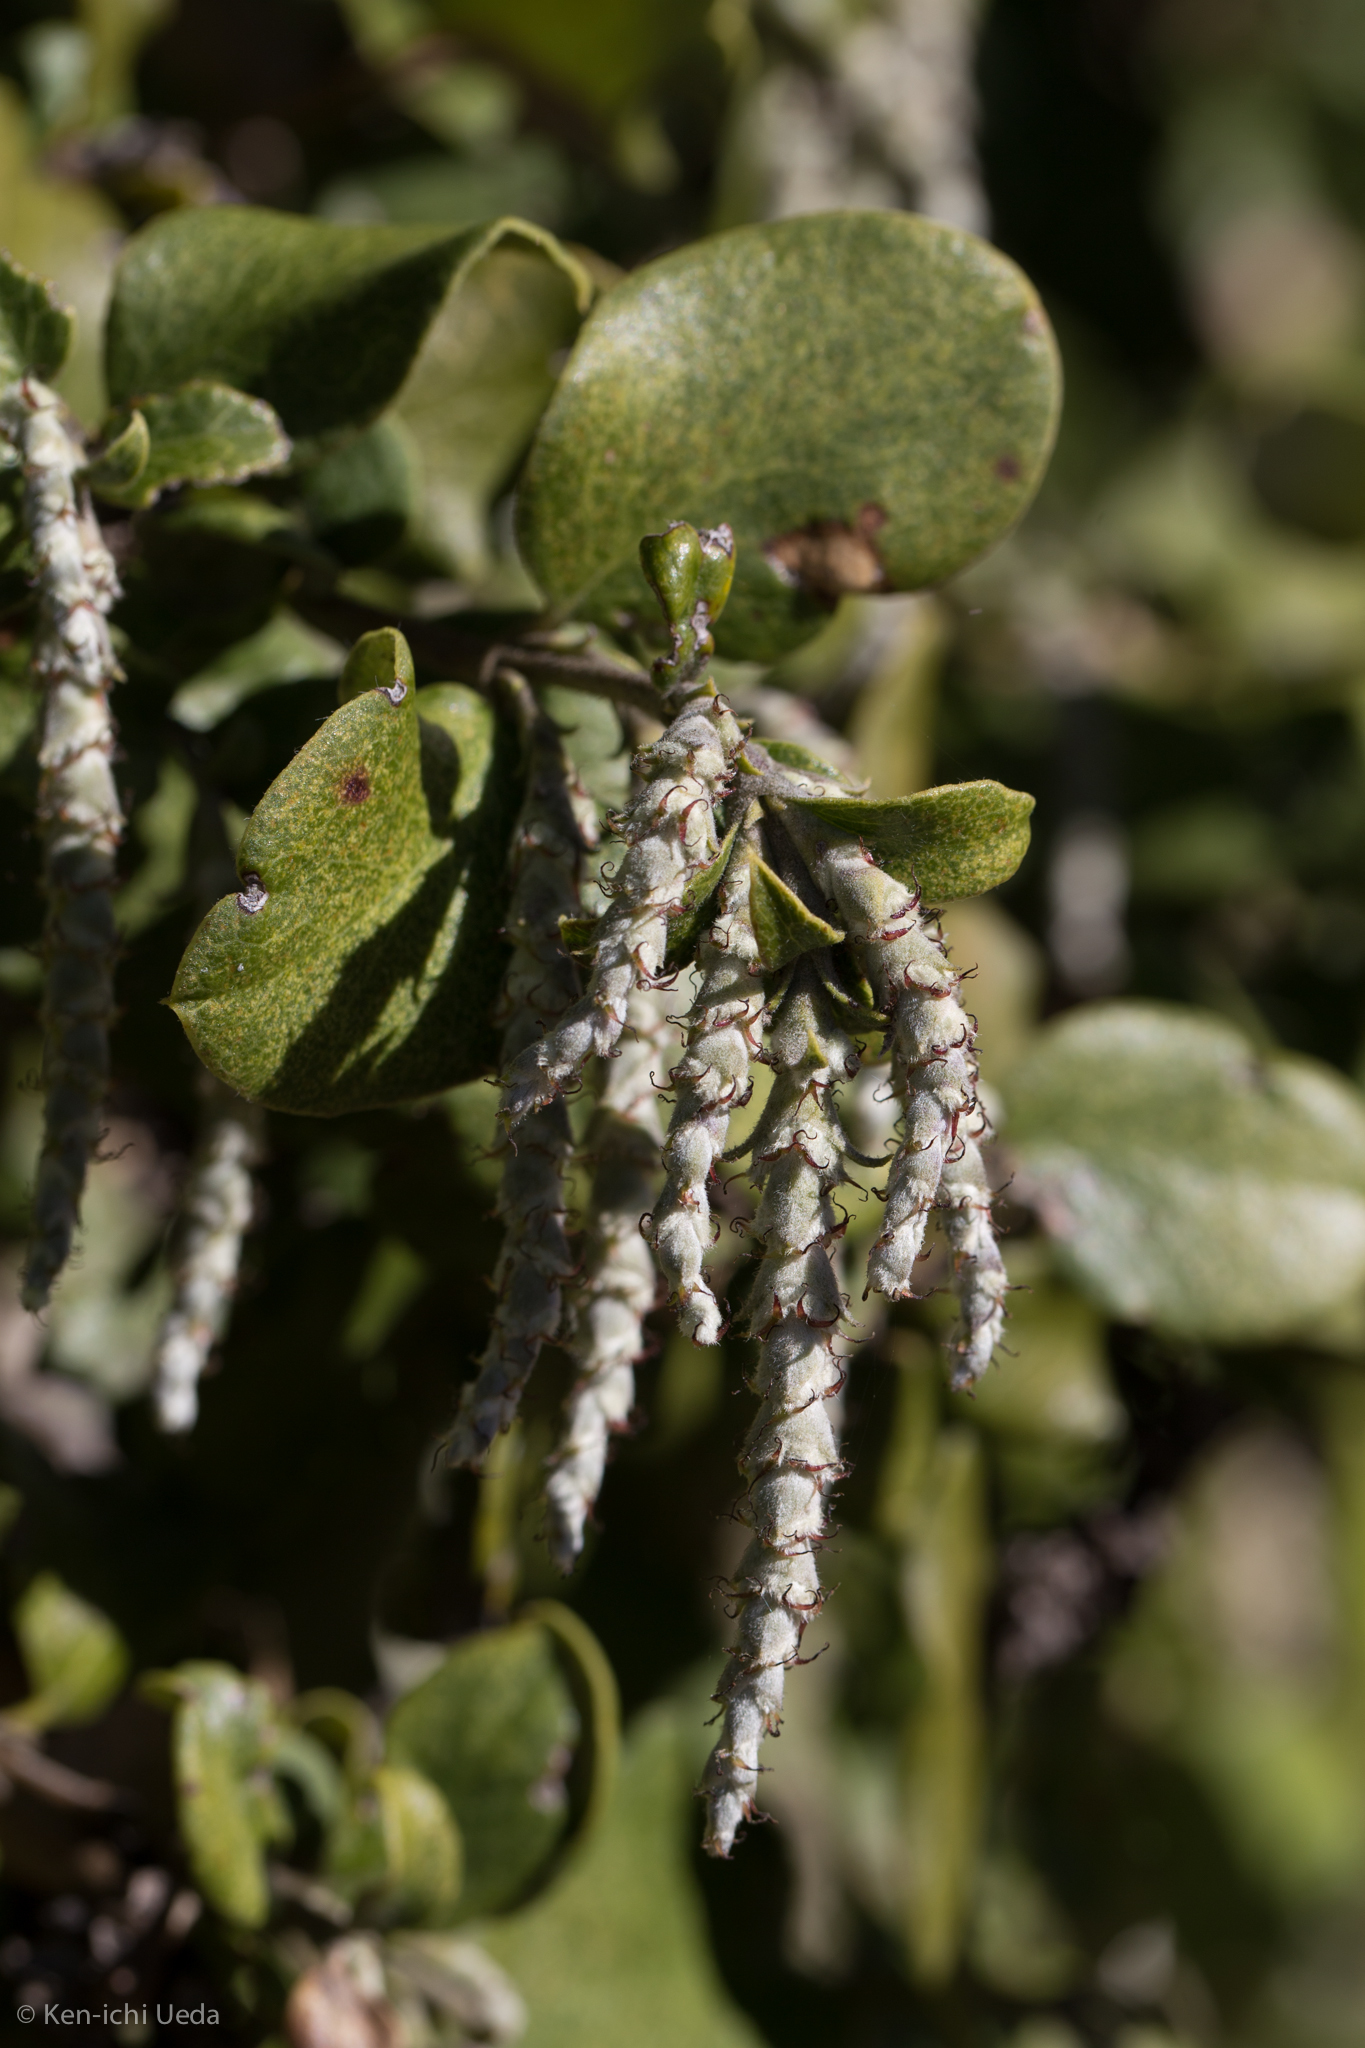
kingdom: Plantae
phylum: Tracheophyta
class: Magnoliopsida
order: Garryales
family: Garryaceae
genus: Garrya
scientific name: Garrya elliptica
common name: Silk-tassel
